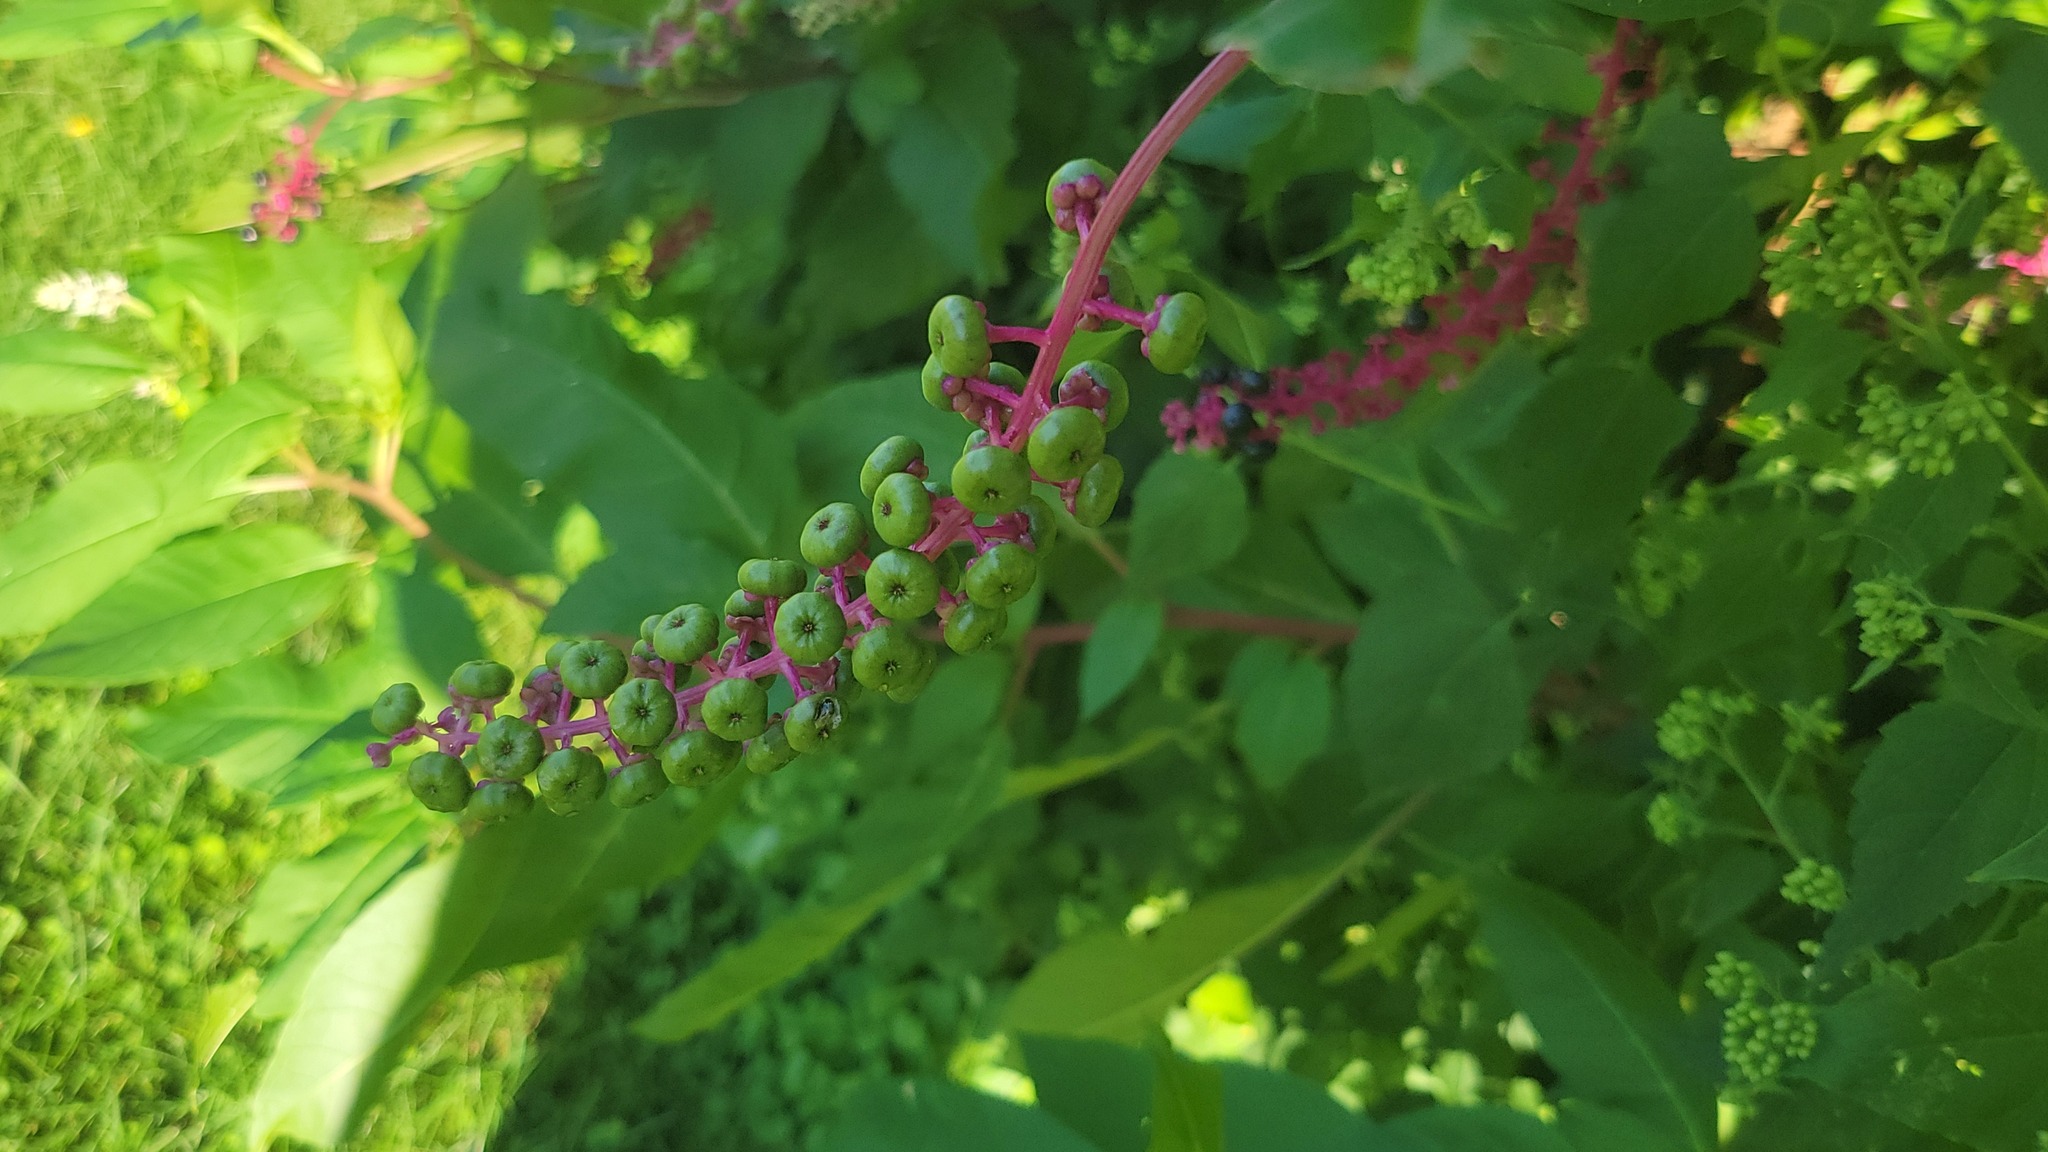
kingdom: Plantae
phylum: Tracheophyta
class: Magnoliopsida
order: Caryophyllales
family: Phytolaccaceae
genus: Phytolacca
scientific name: Phytolacca americana
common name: American pokeweed
